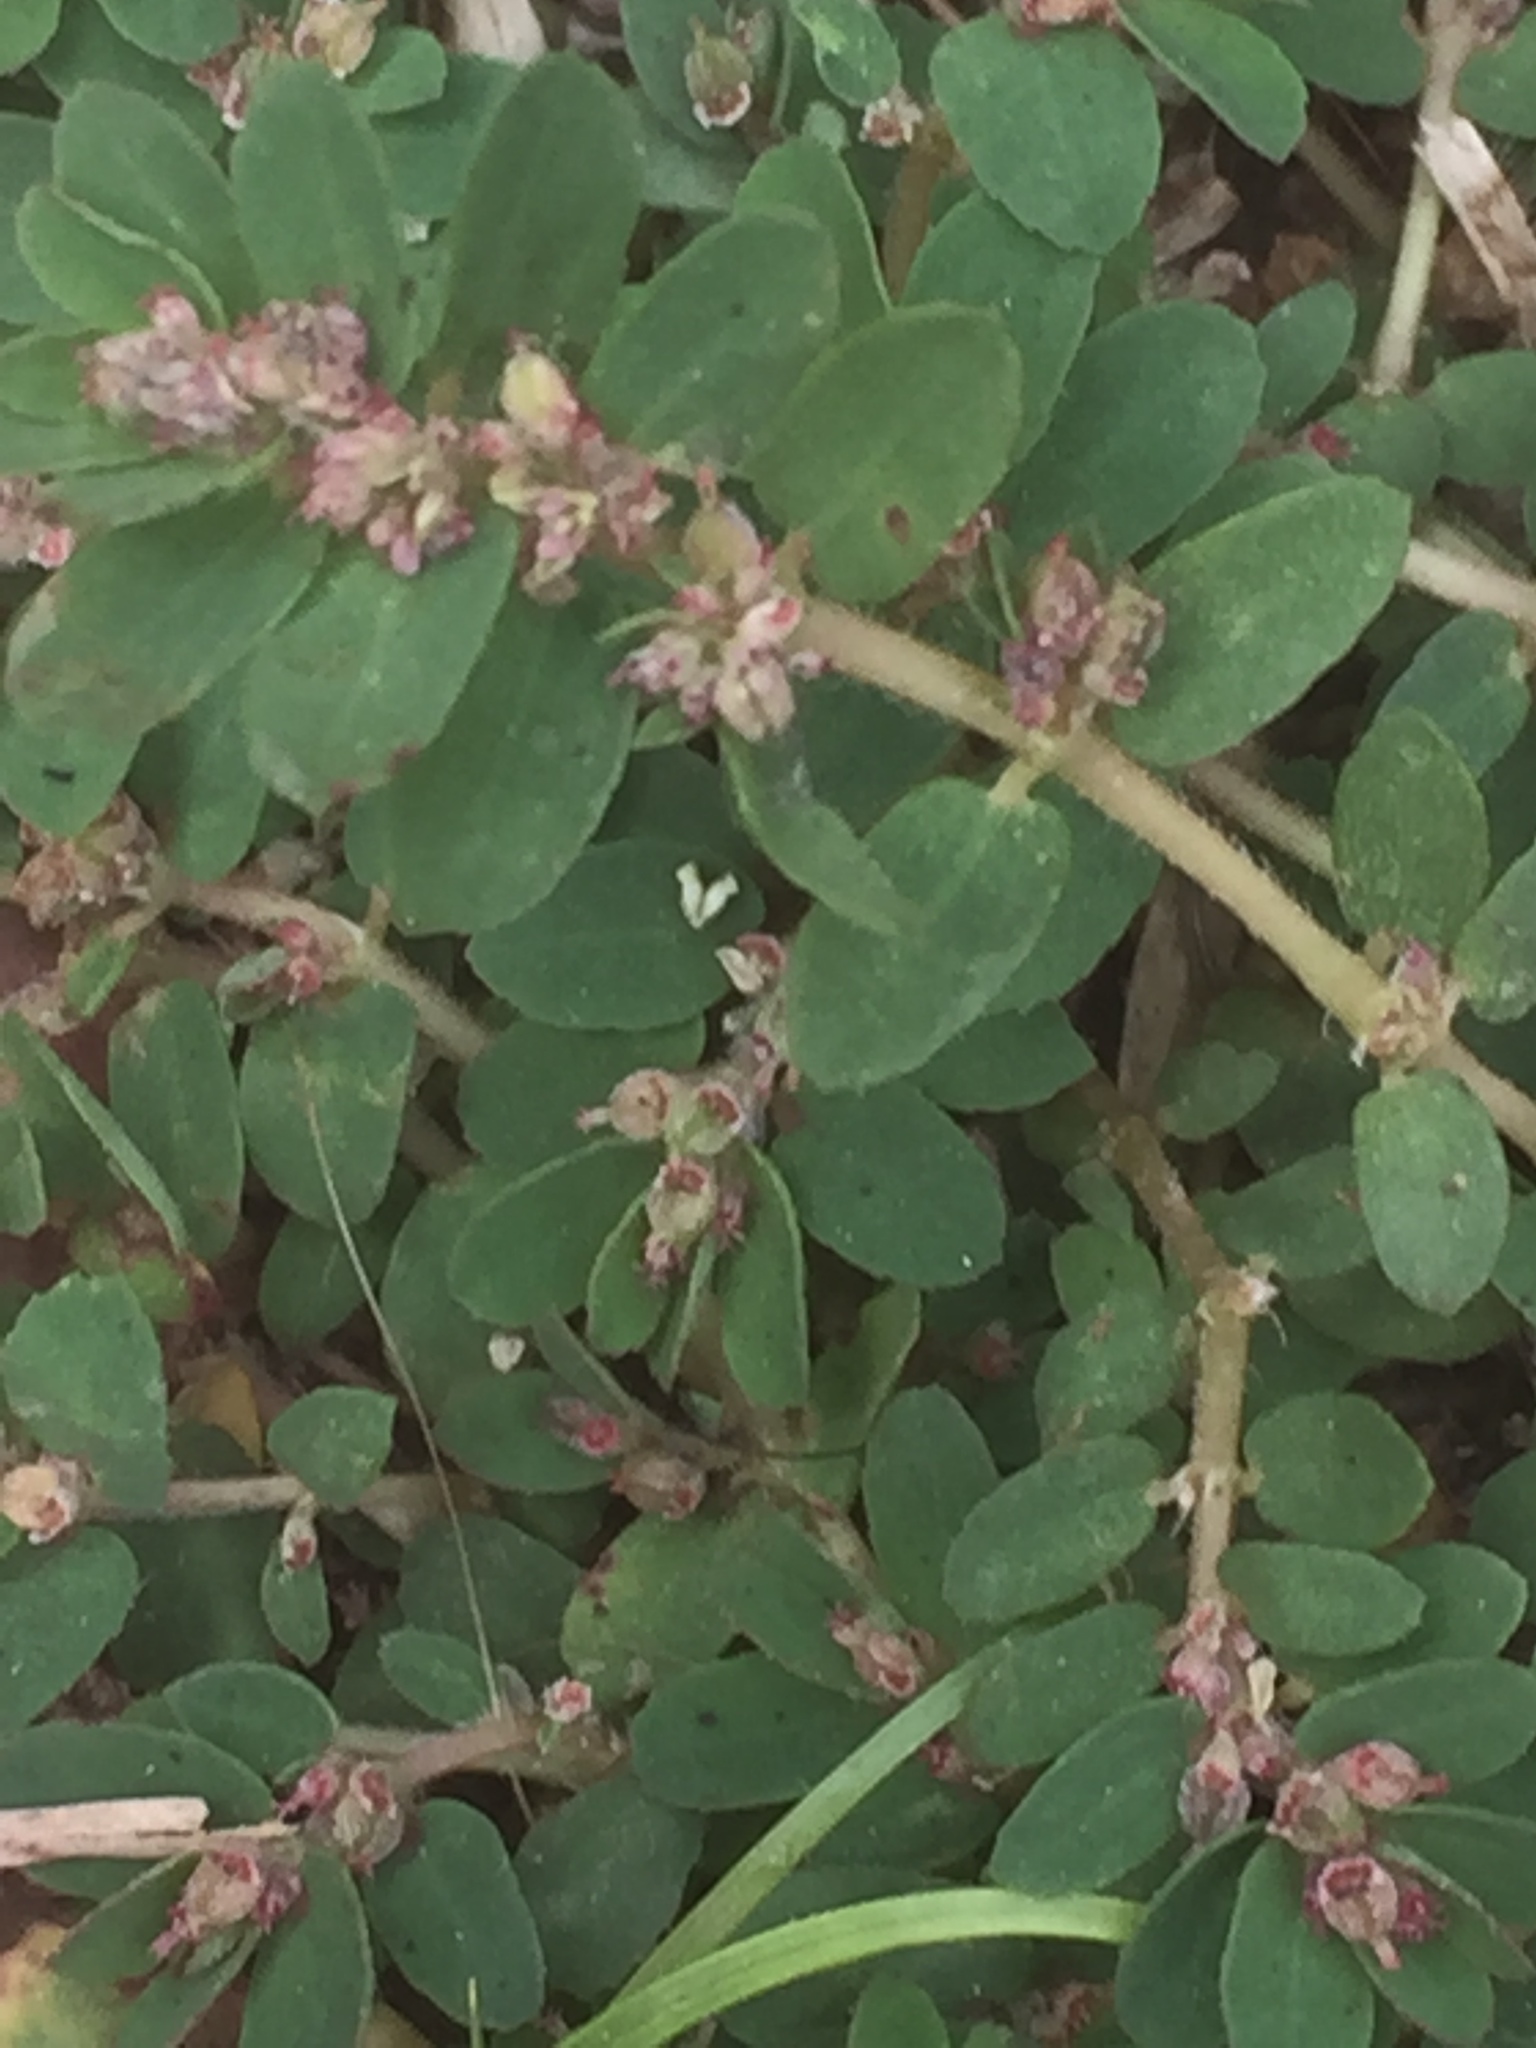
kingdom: Plantae
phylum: Tracheophyta
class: Magnoliopsida
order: Malpighiales
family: Euphorbiaceae
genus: Euphorbia
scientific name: Euphorbia thymifolia
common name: Gulf sandmat
